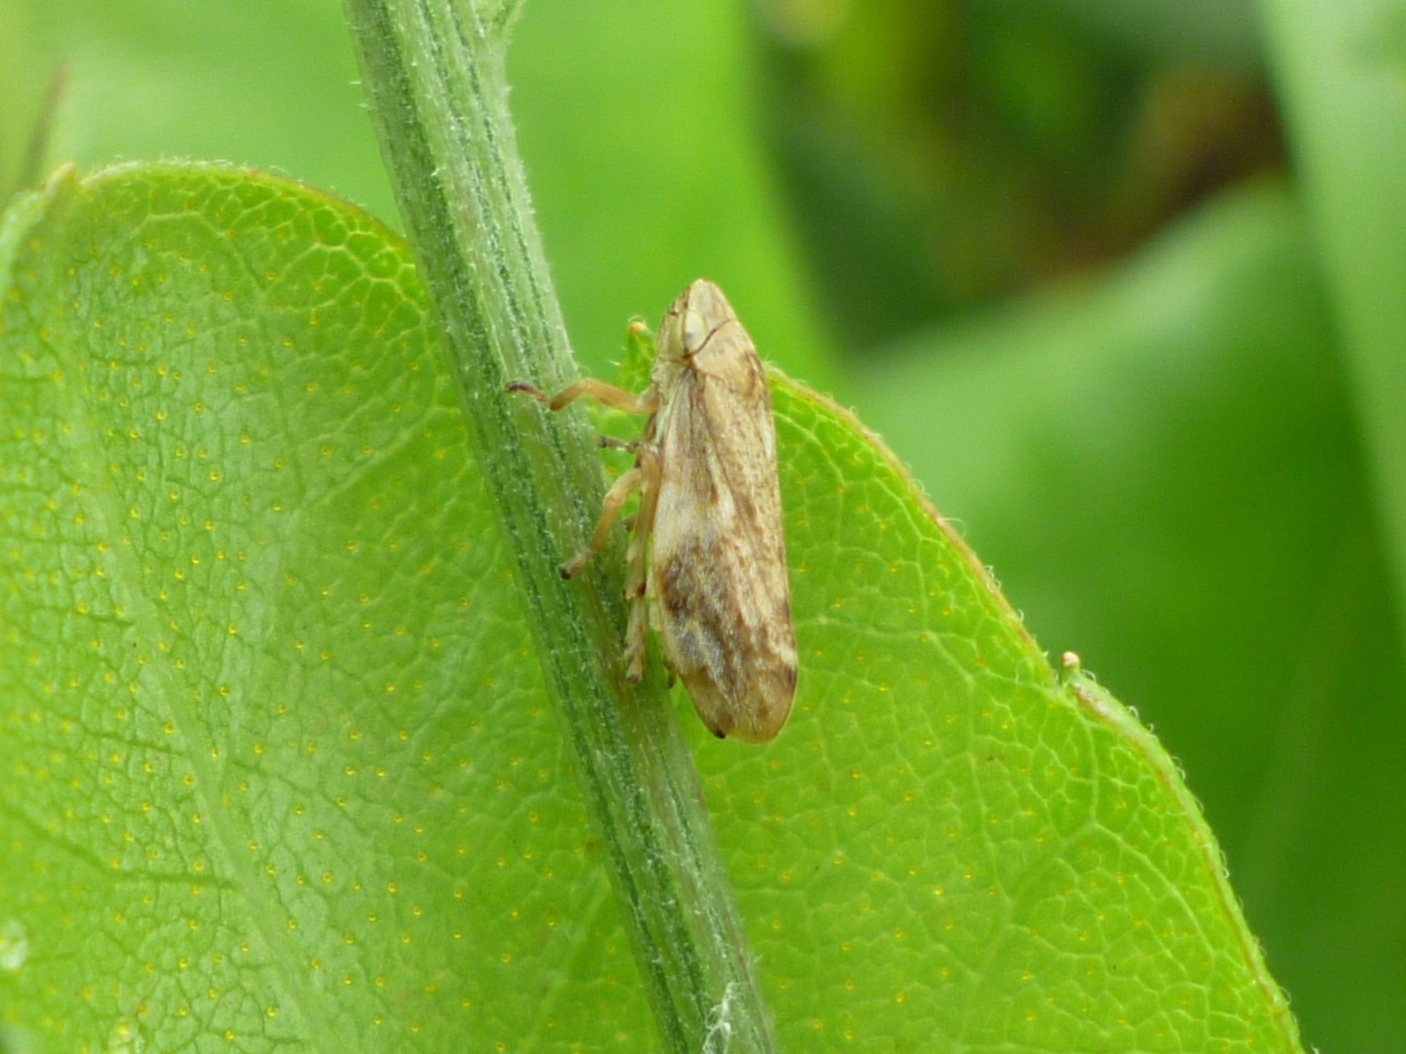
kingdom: Animalia
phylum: Arthropoda
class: Insecta
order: Hemiptera
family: Aphrophoridae
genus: Philaenus
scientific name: Philaenus spumarius
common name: Meadow spittlebug
